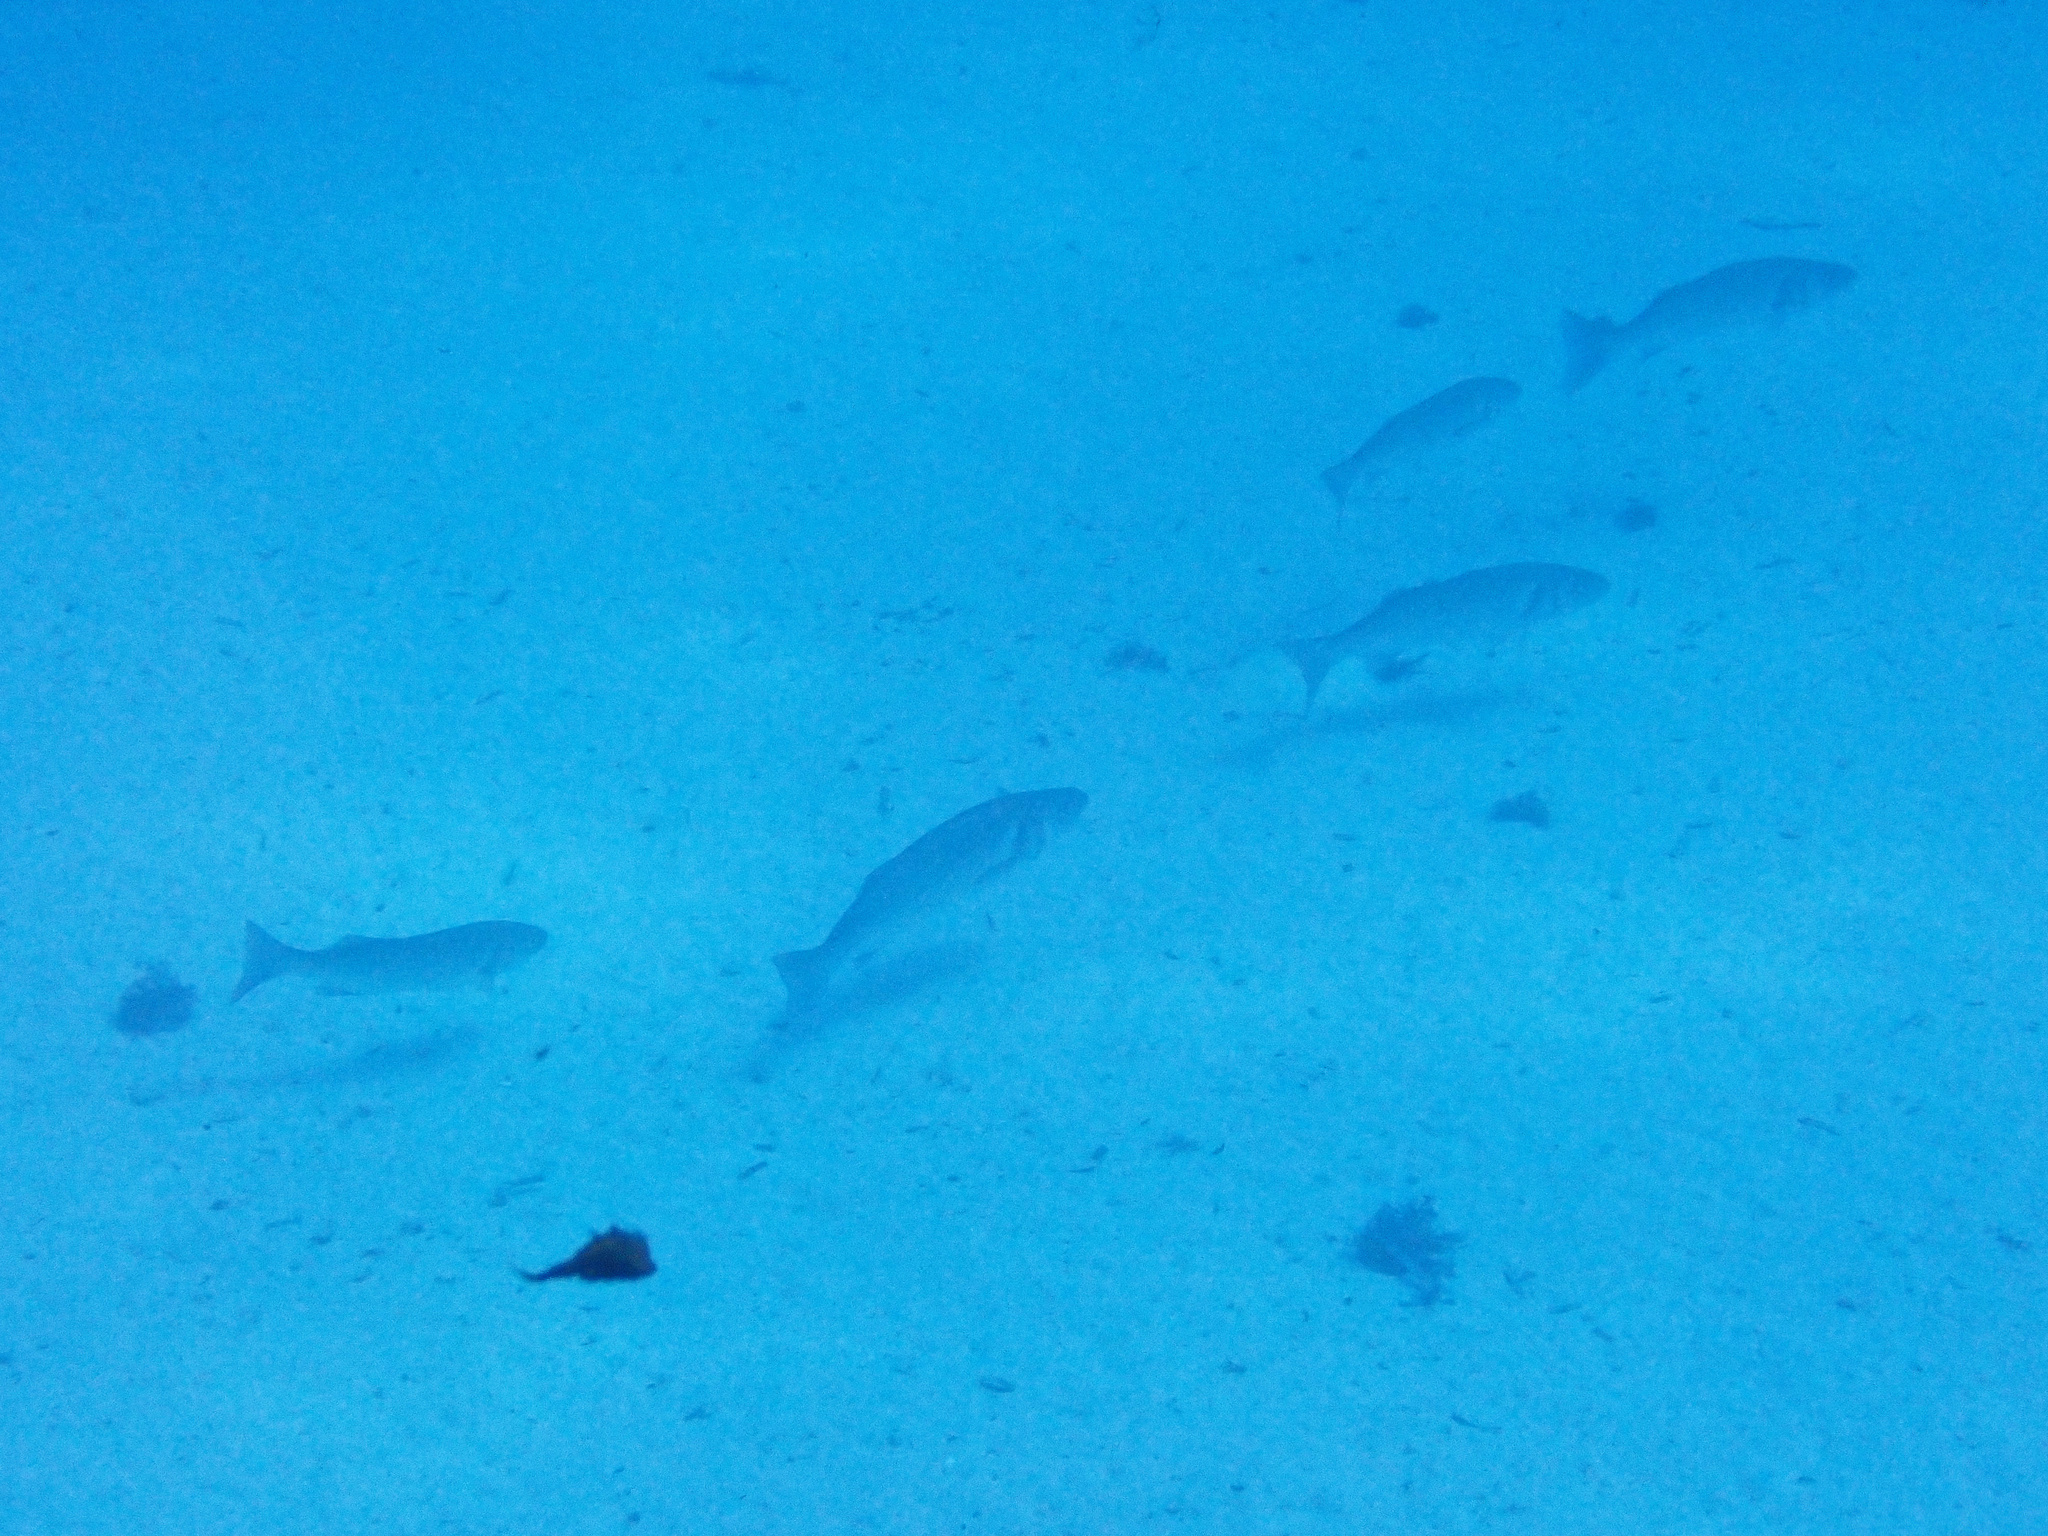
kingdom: Animalia
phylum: Chordata
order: Perciformes
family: Moronidae
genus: Dicentrarchus
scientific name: Dicentrarchus labrax
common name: European seabass
